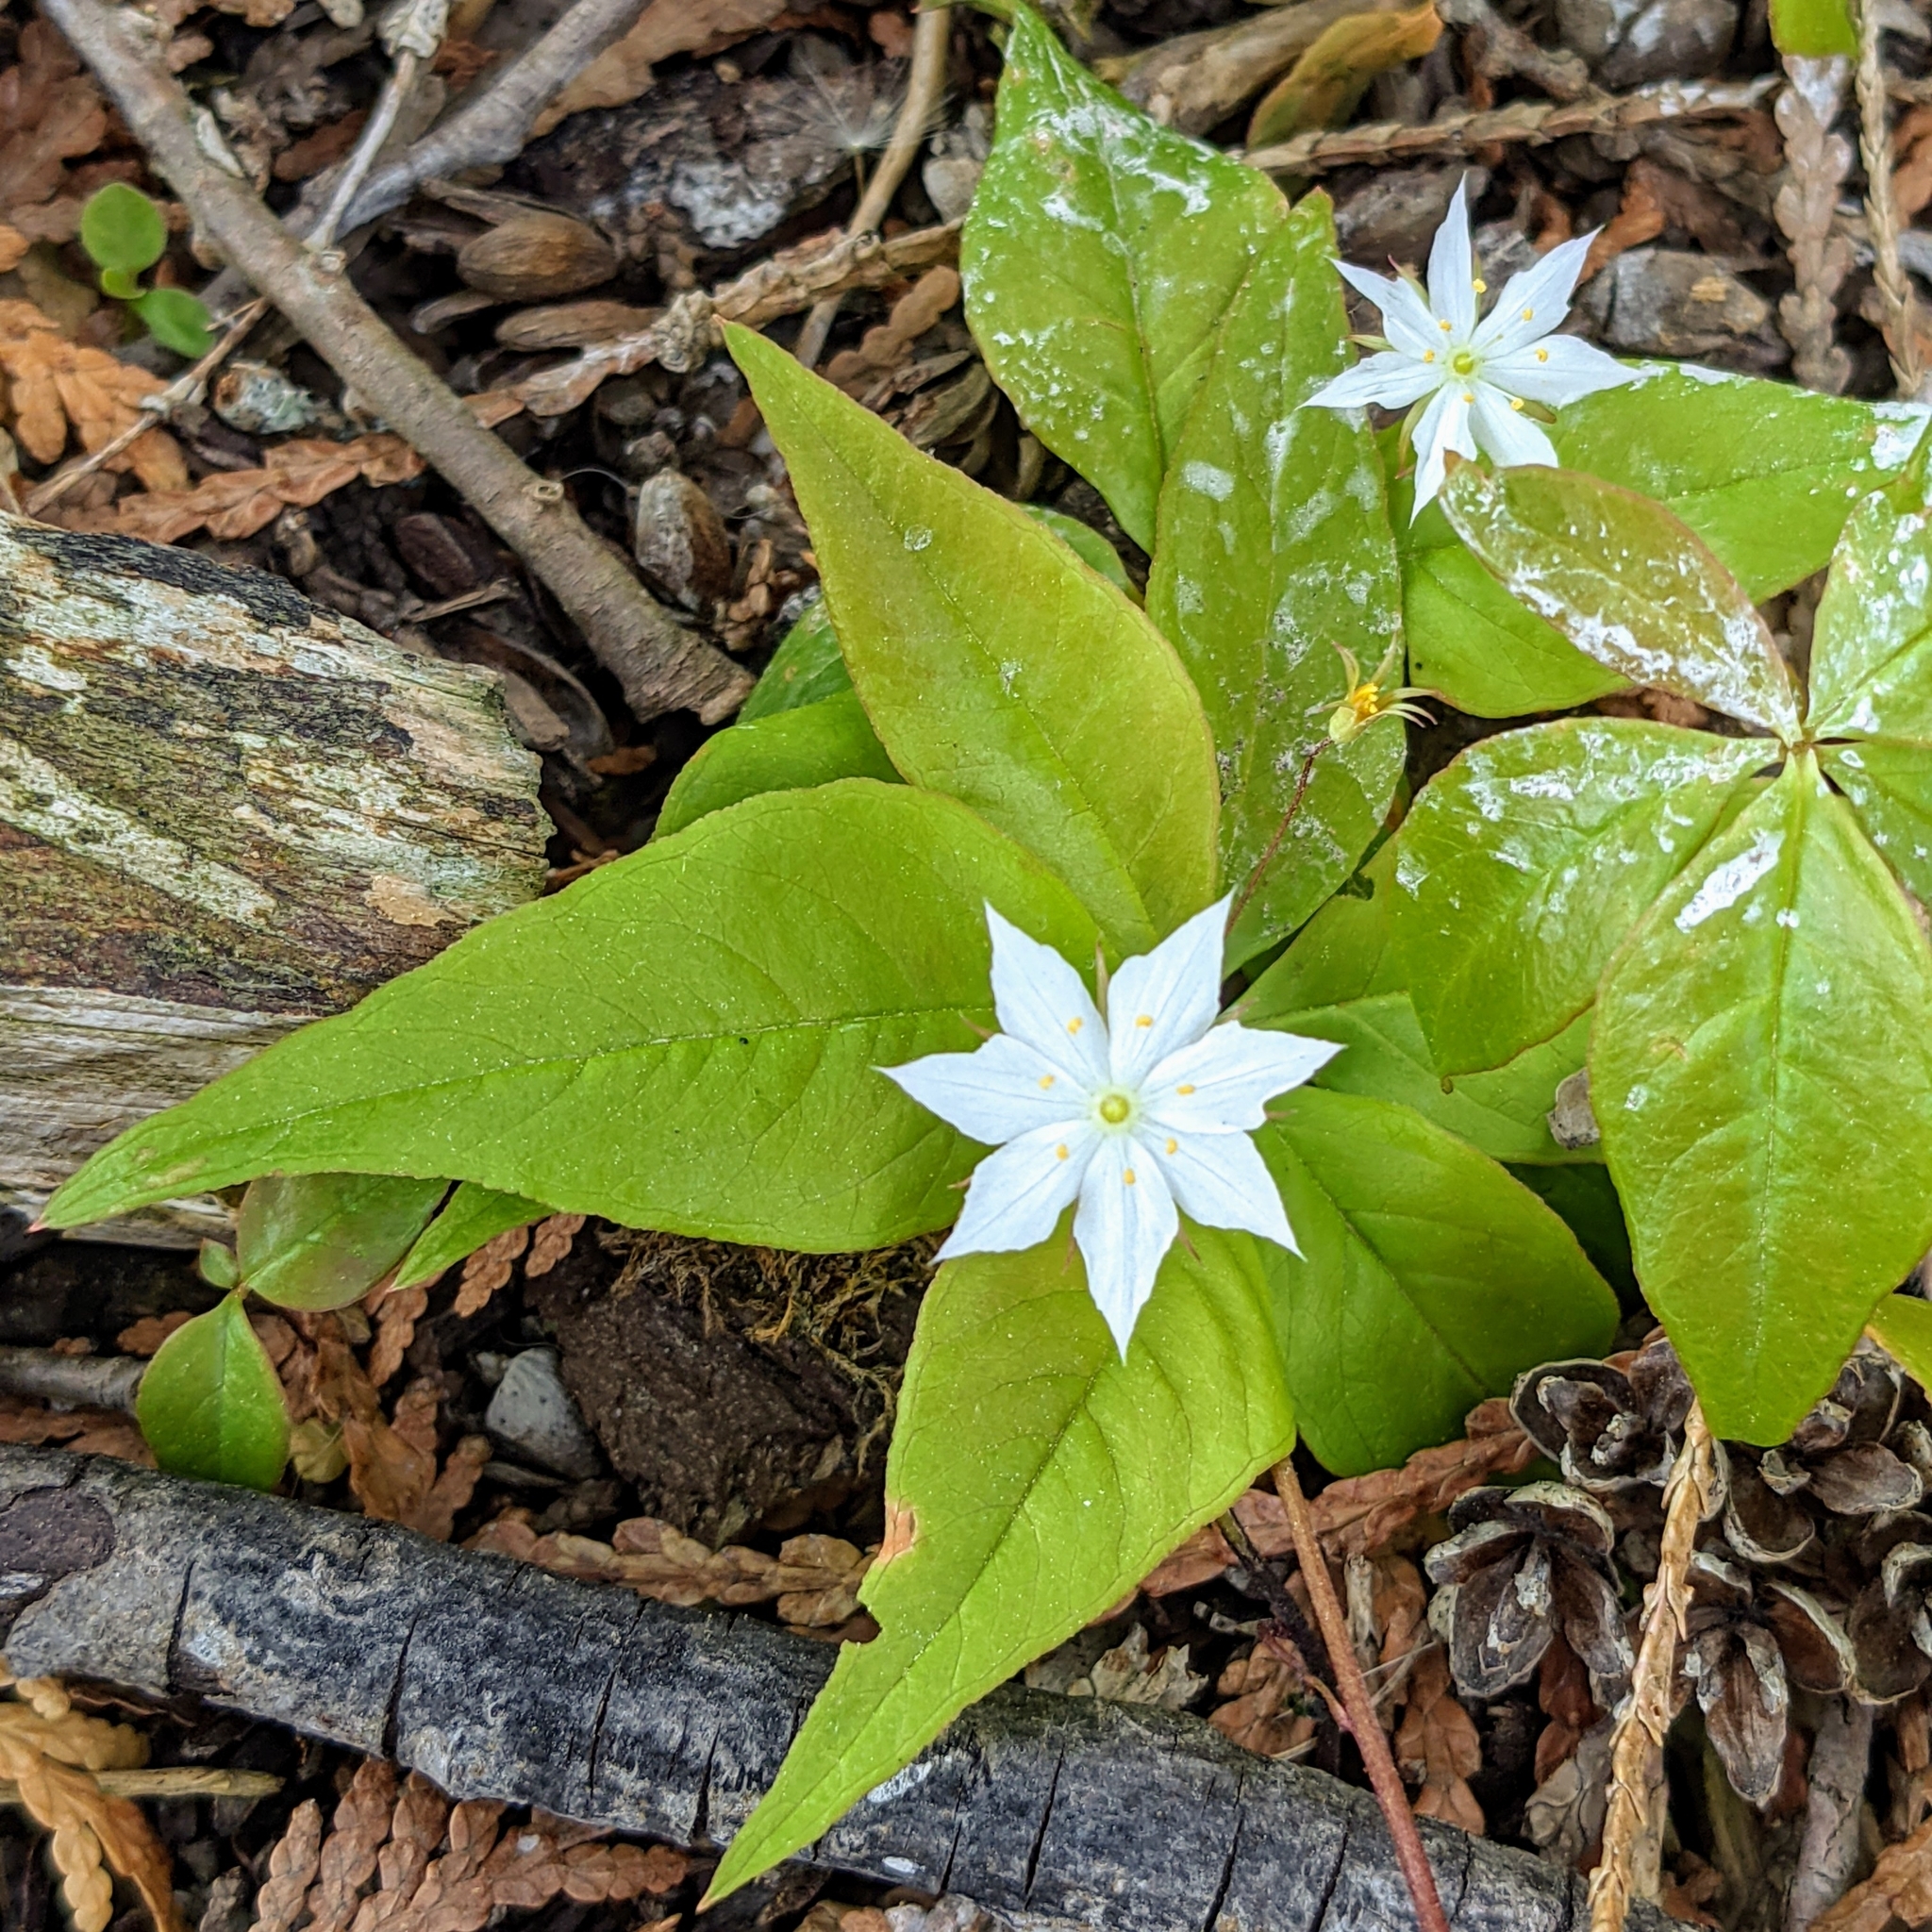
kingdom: Plantae
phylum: Tracheophyta
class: Magnoliopsida
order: Ericales
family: Primulaceae
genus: Lysimachia
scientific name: Lysimachia borealis
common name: American starflower
